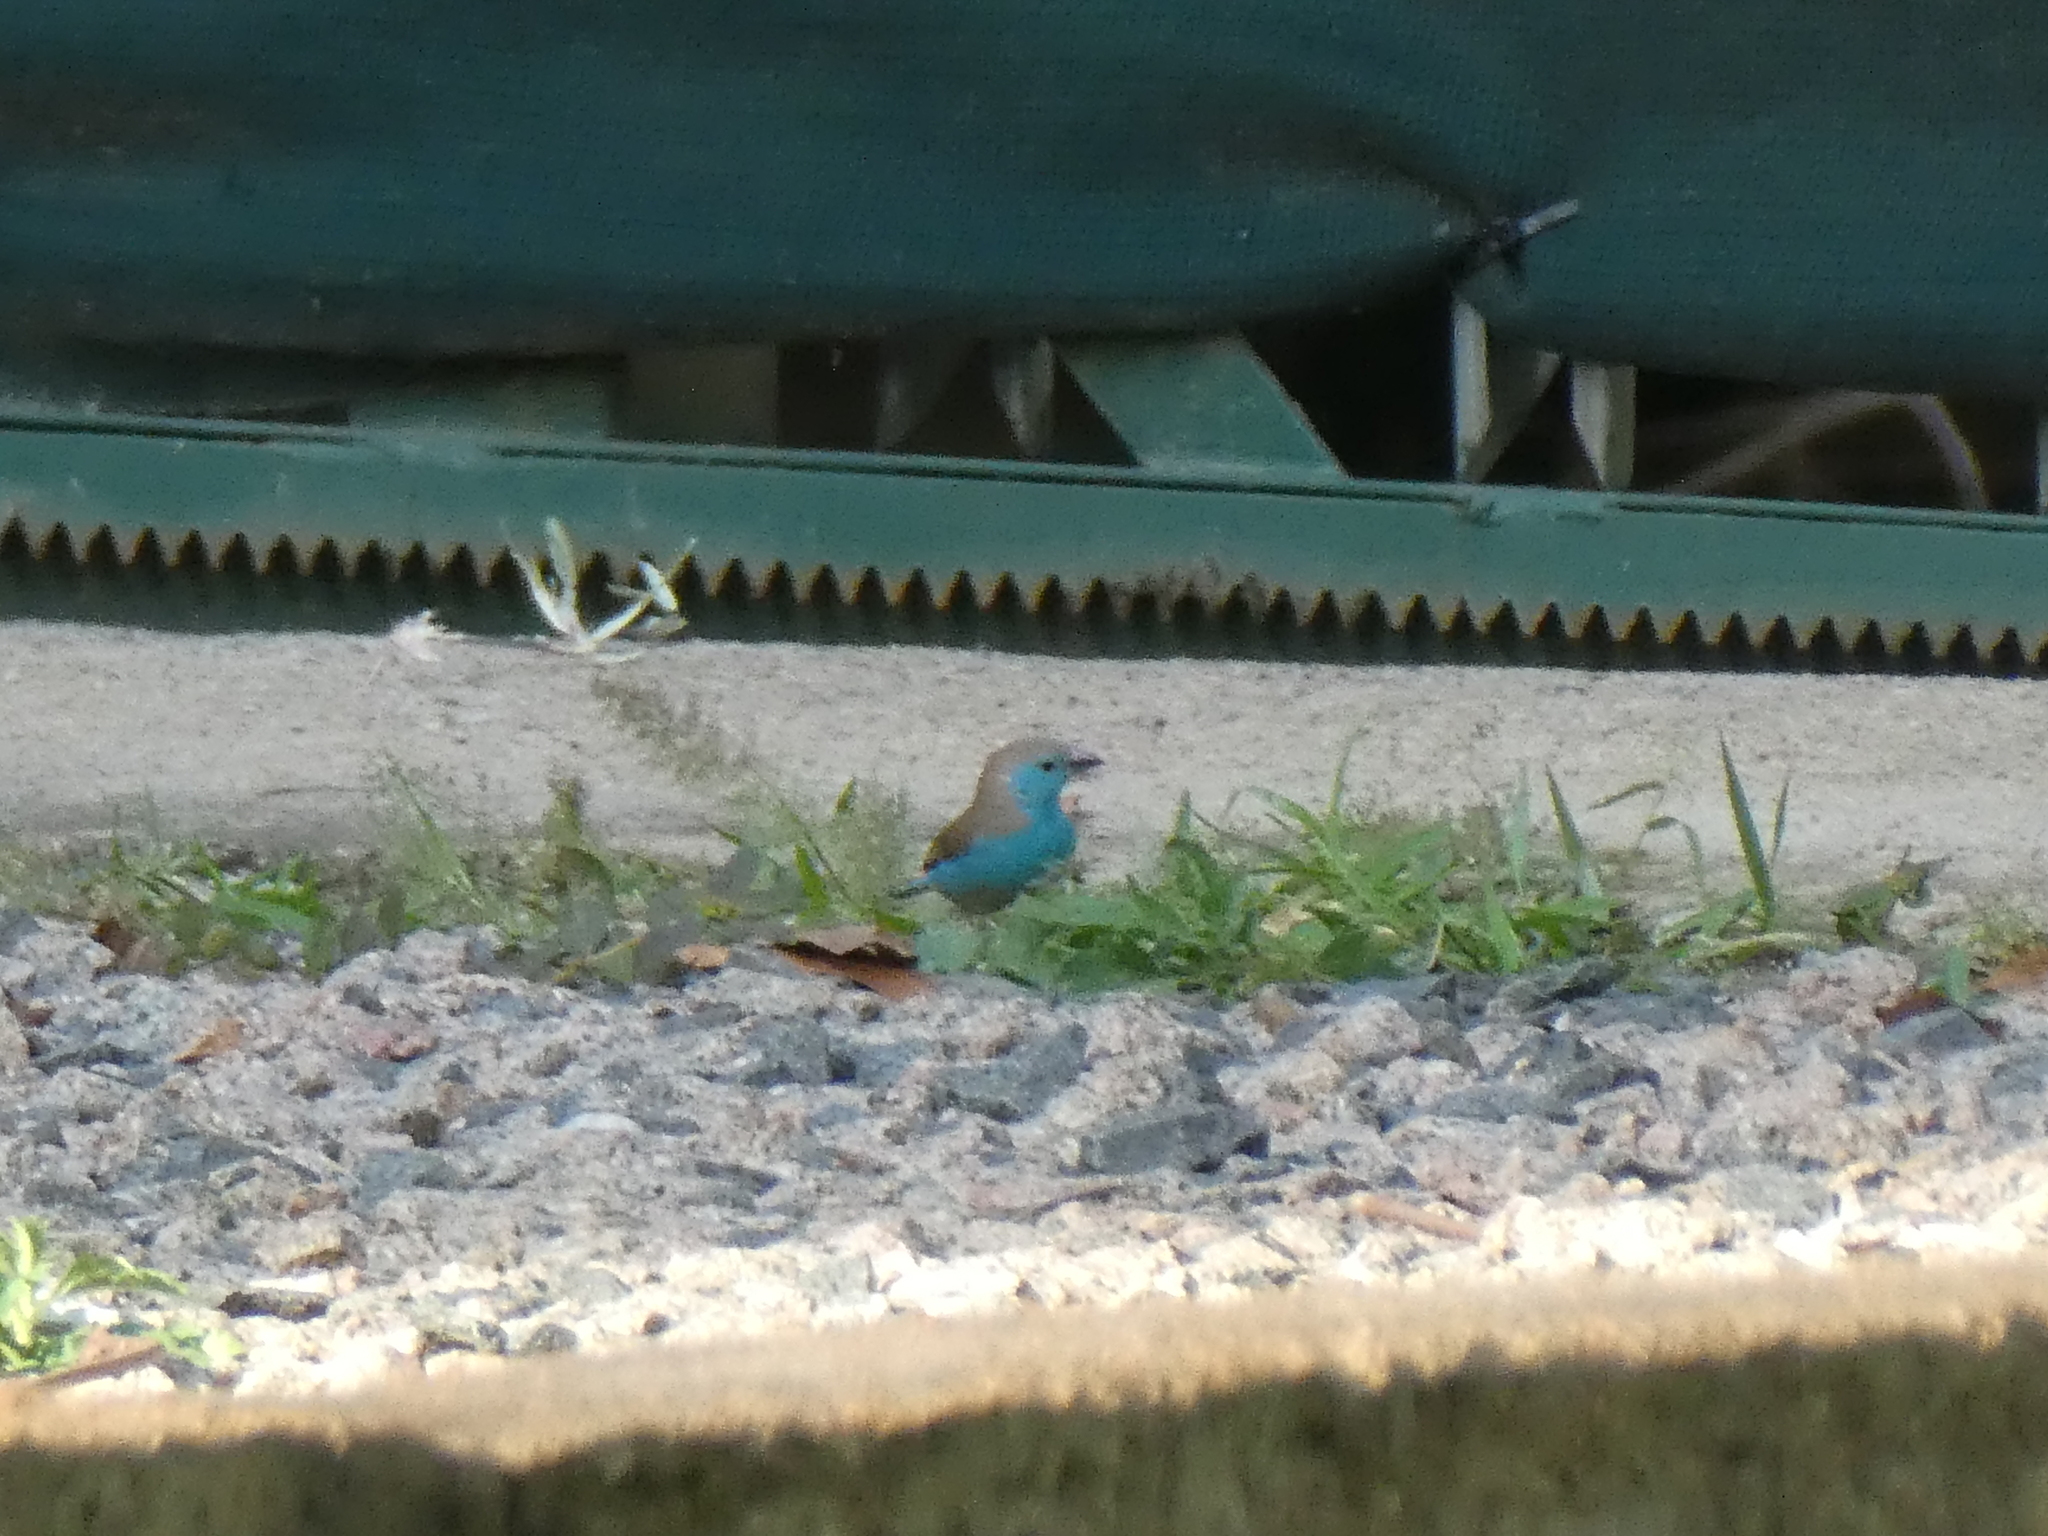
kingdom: Animalia
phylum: Chordata
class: Aves
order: Passeriformes
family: Estrildidae
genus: Uraeginthus
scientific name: Uraeginthus angolensis
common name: Blue waxbill
